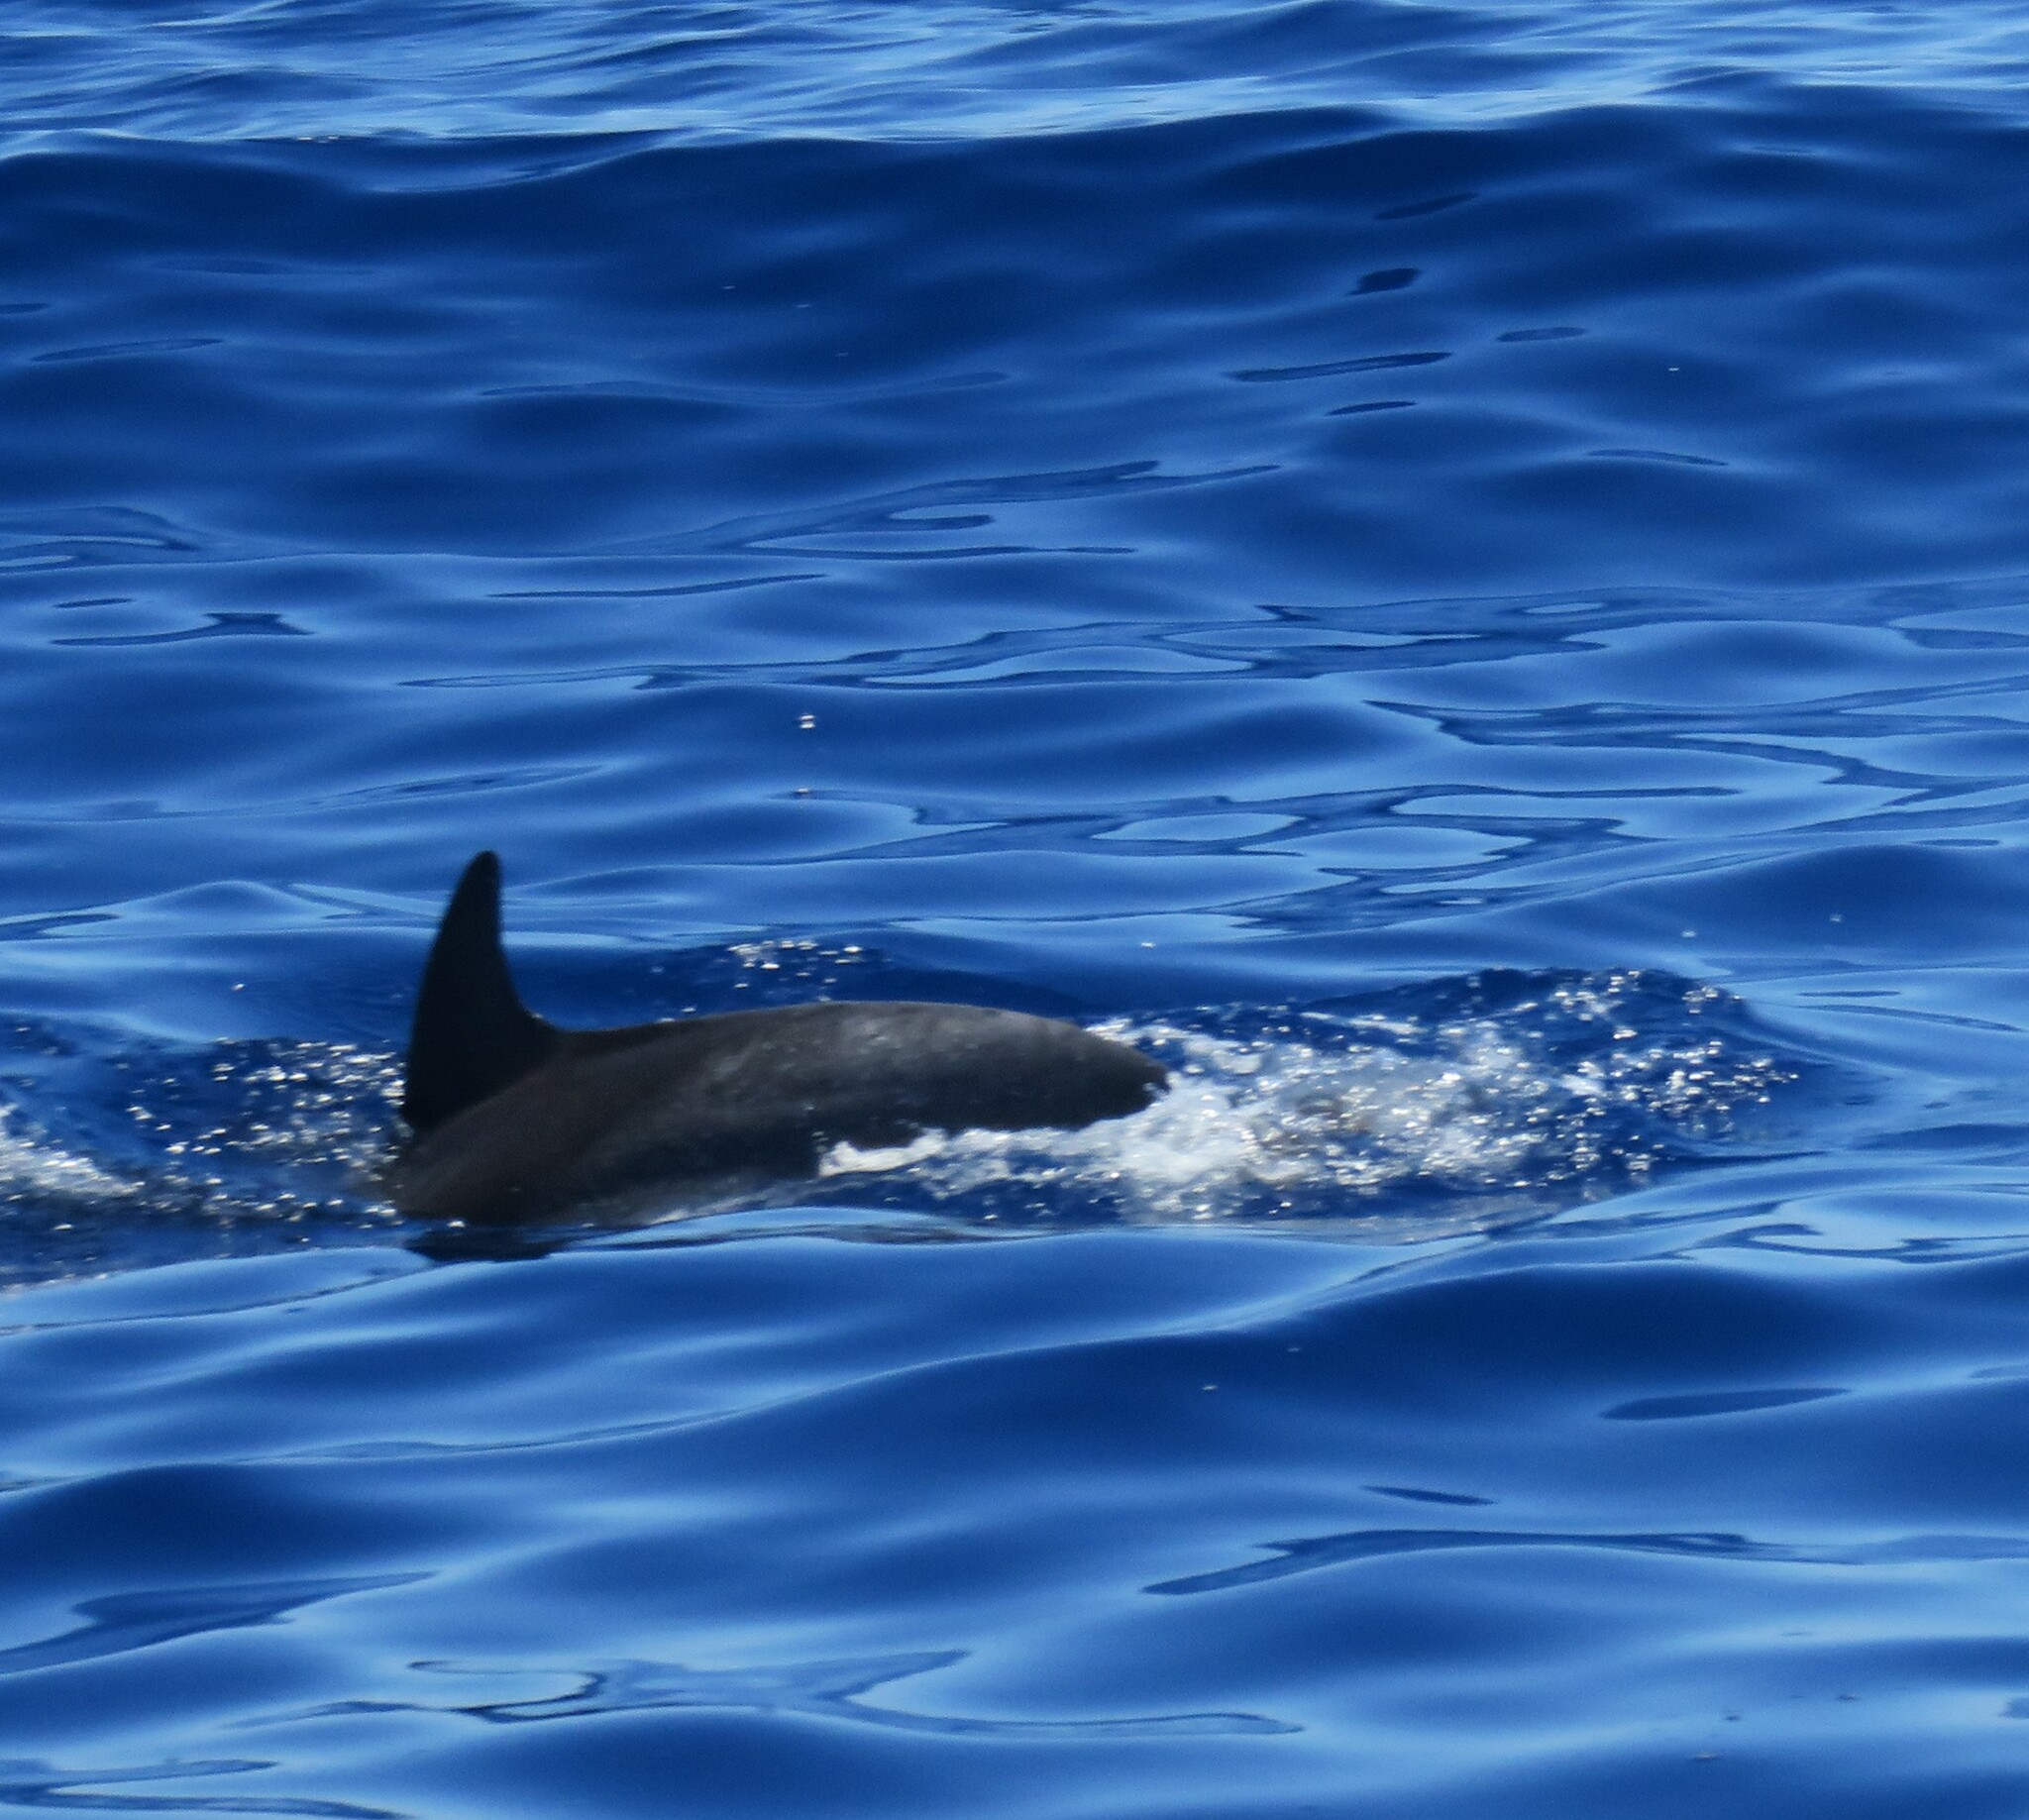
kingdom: Animalia
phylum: Chordata
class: Mammalia
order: Cetacea
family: Delphinidae
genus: Stenella
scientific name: Stenella frontalis
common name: Atlantic spotted dolphin
